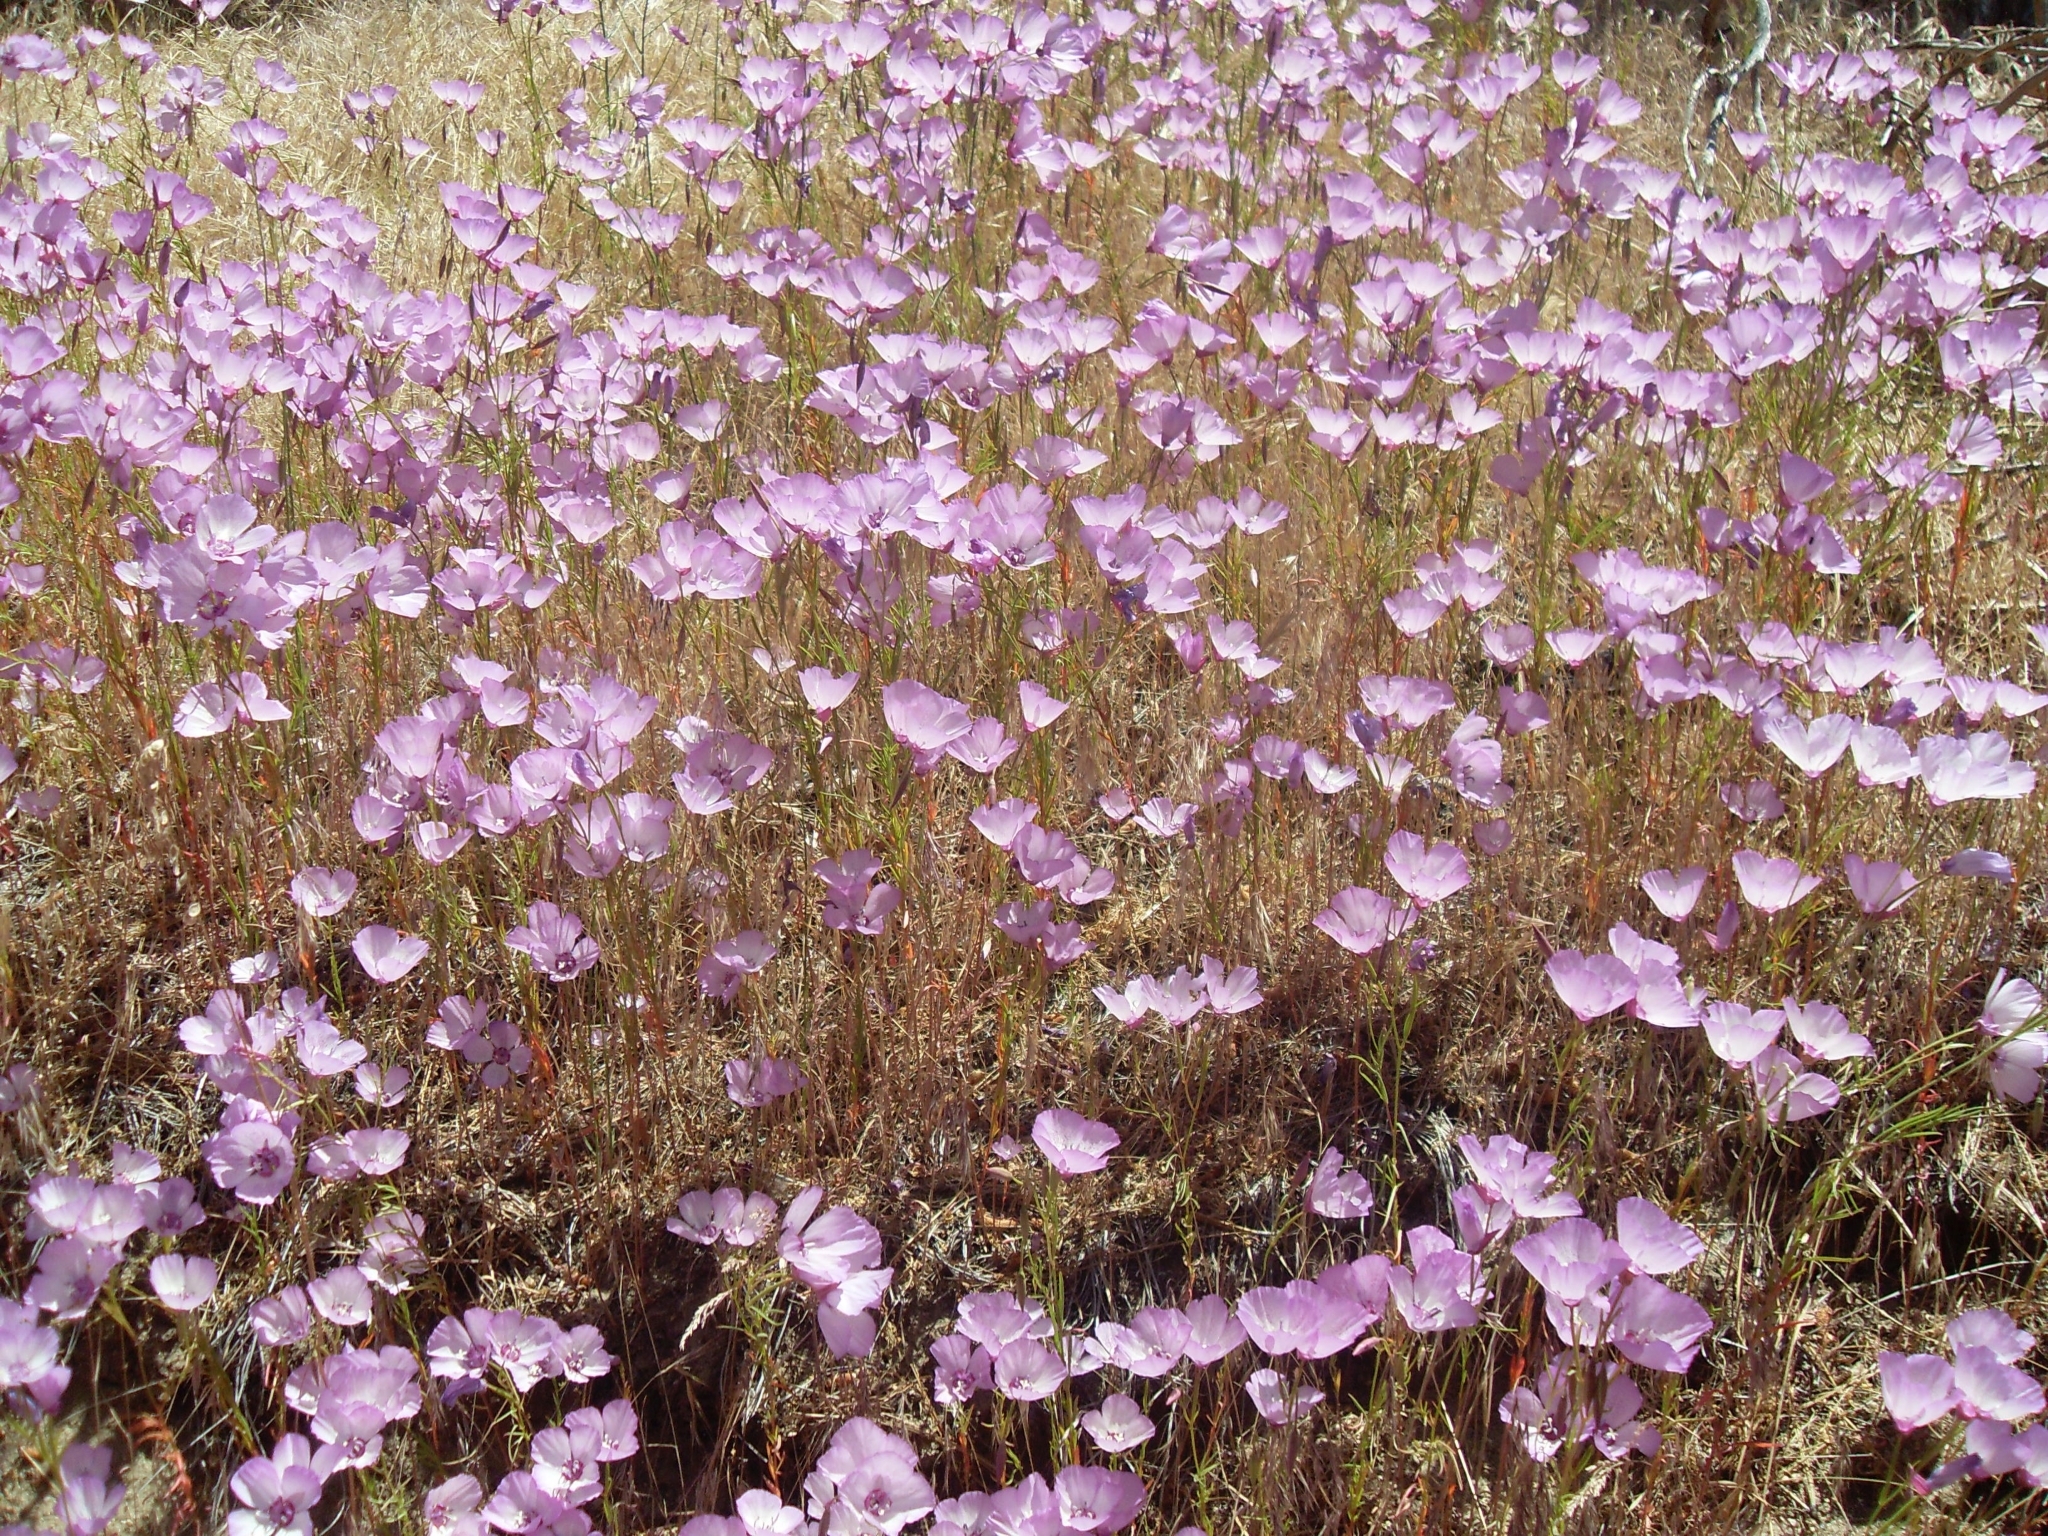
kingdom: Plantae
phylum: Tracheophyta
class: Magnoliopsida
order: Myrtales
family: Onagraceae
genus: Clarkia
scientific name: Clarkia cylindrica
